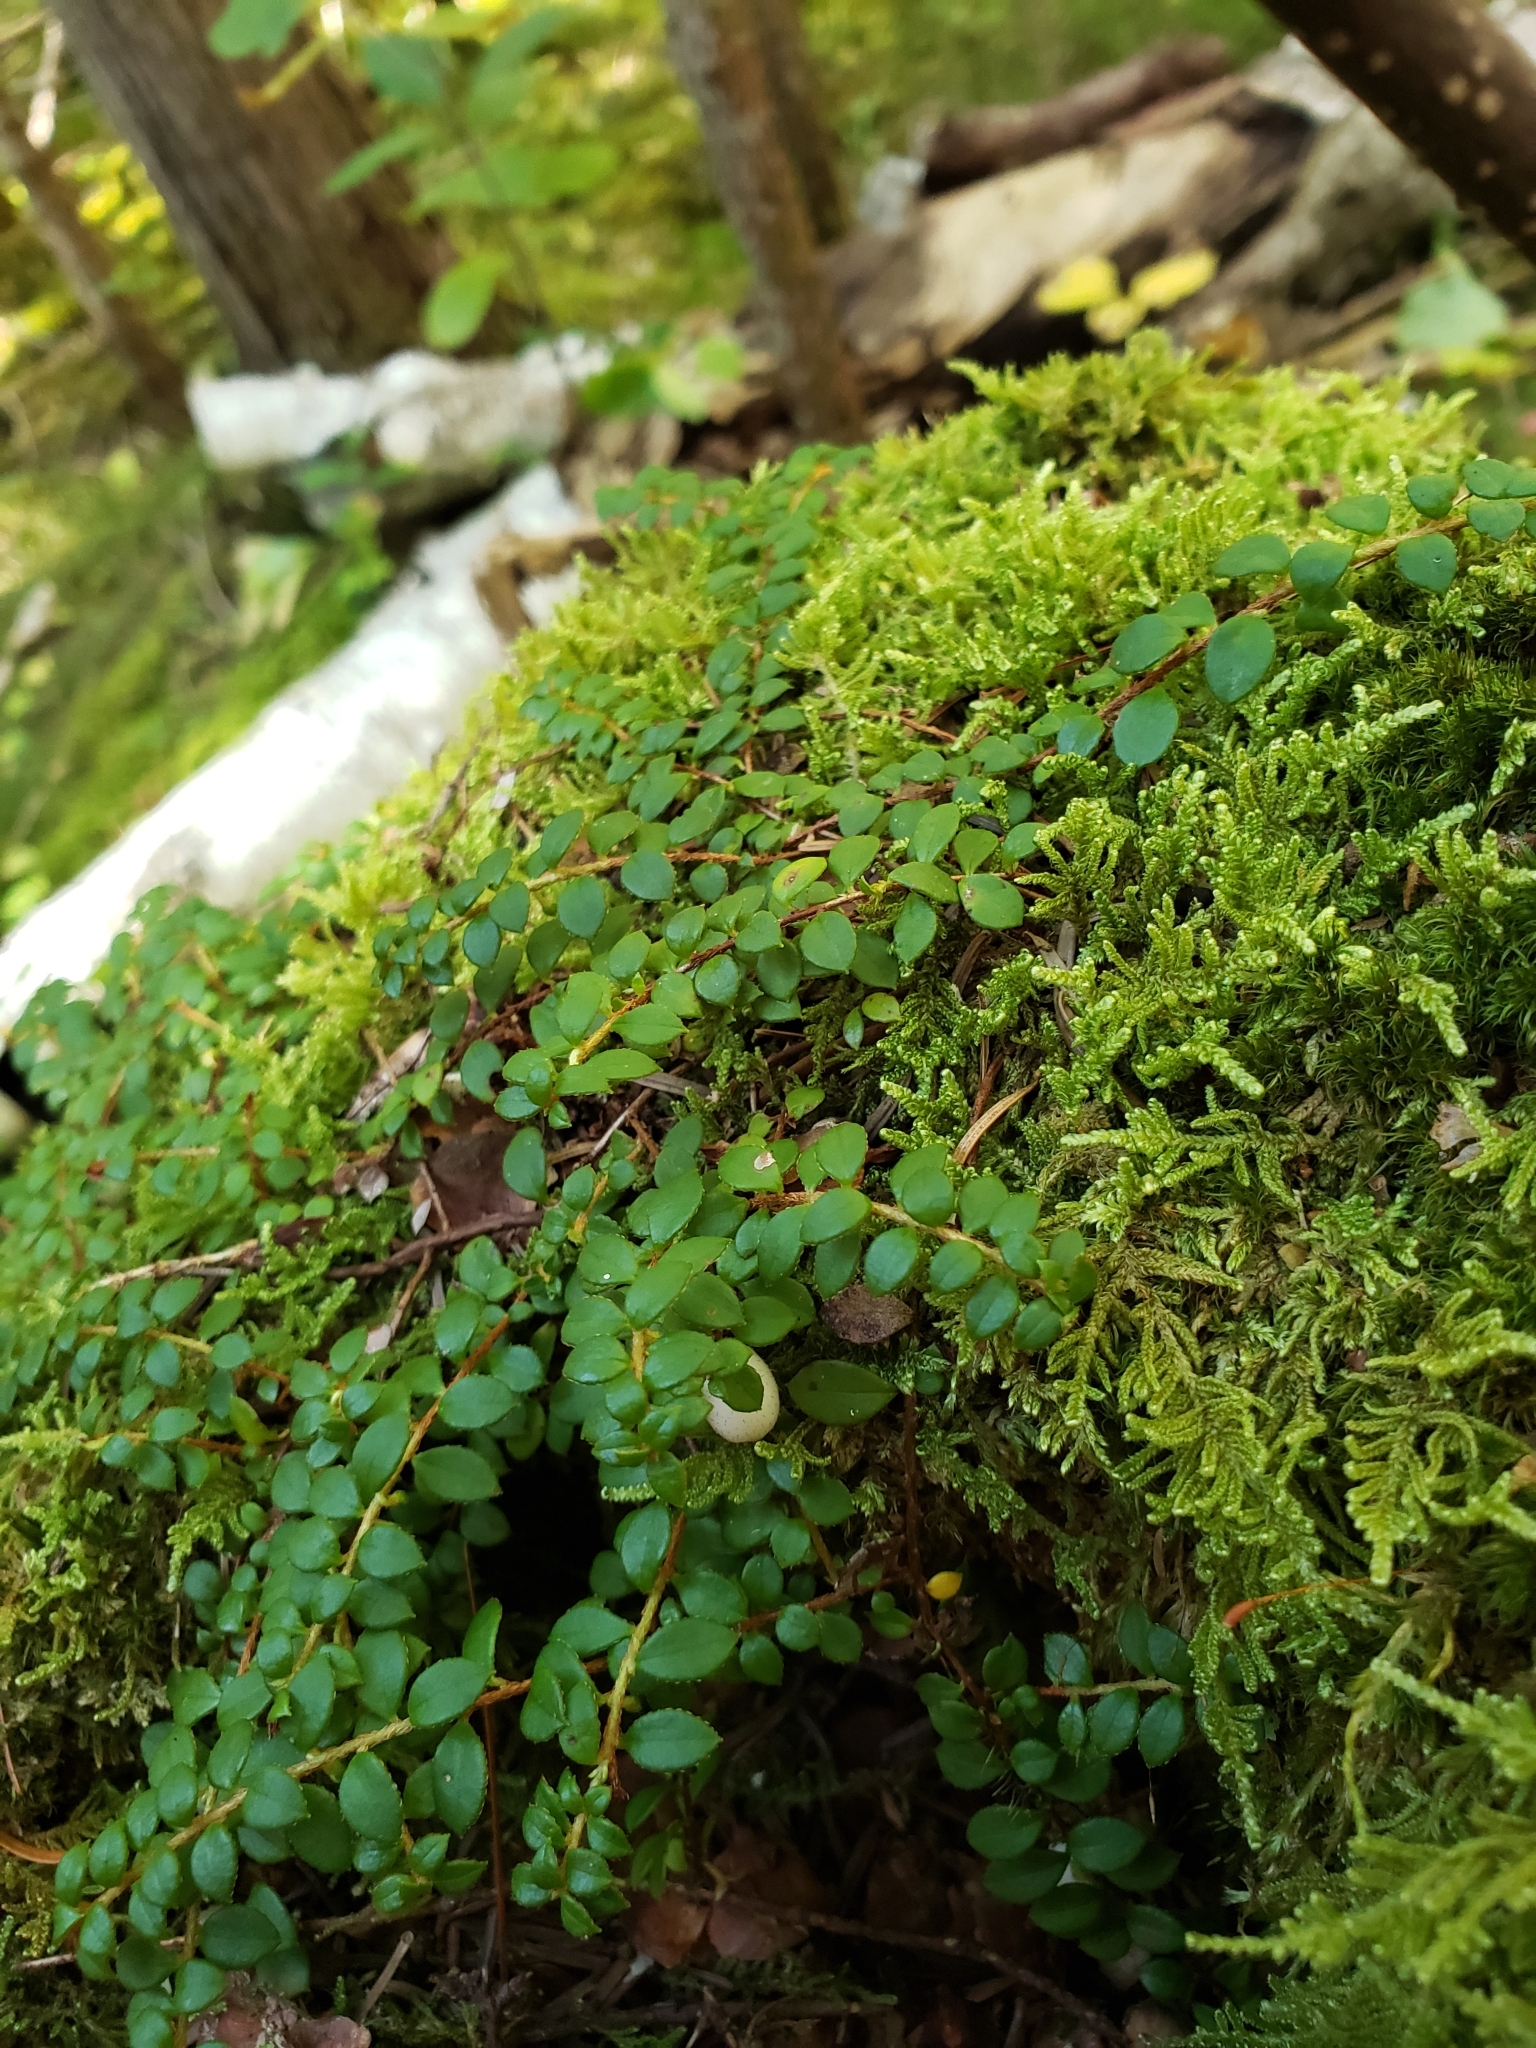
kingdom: Plantae
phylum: Tracheophyta
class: Magnoliopsida
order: Ericales
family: Ericaceae
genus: Gaultheria
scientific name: Gaultheria hispidula
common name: Cancer wintergreen
